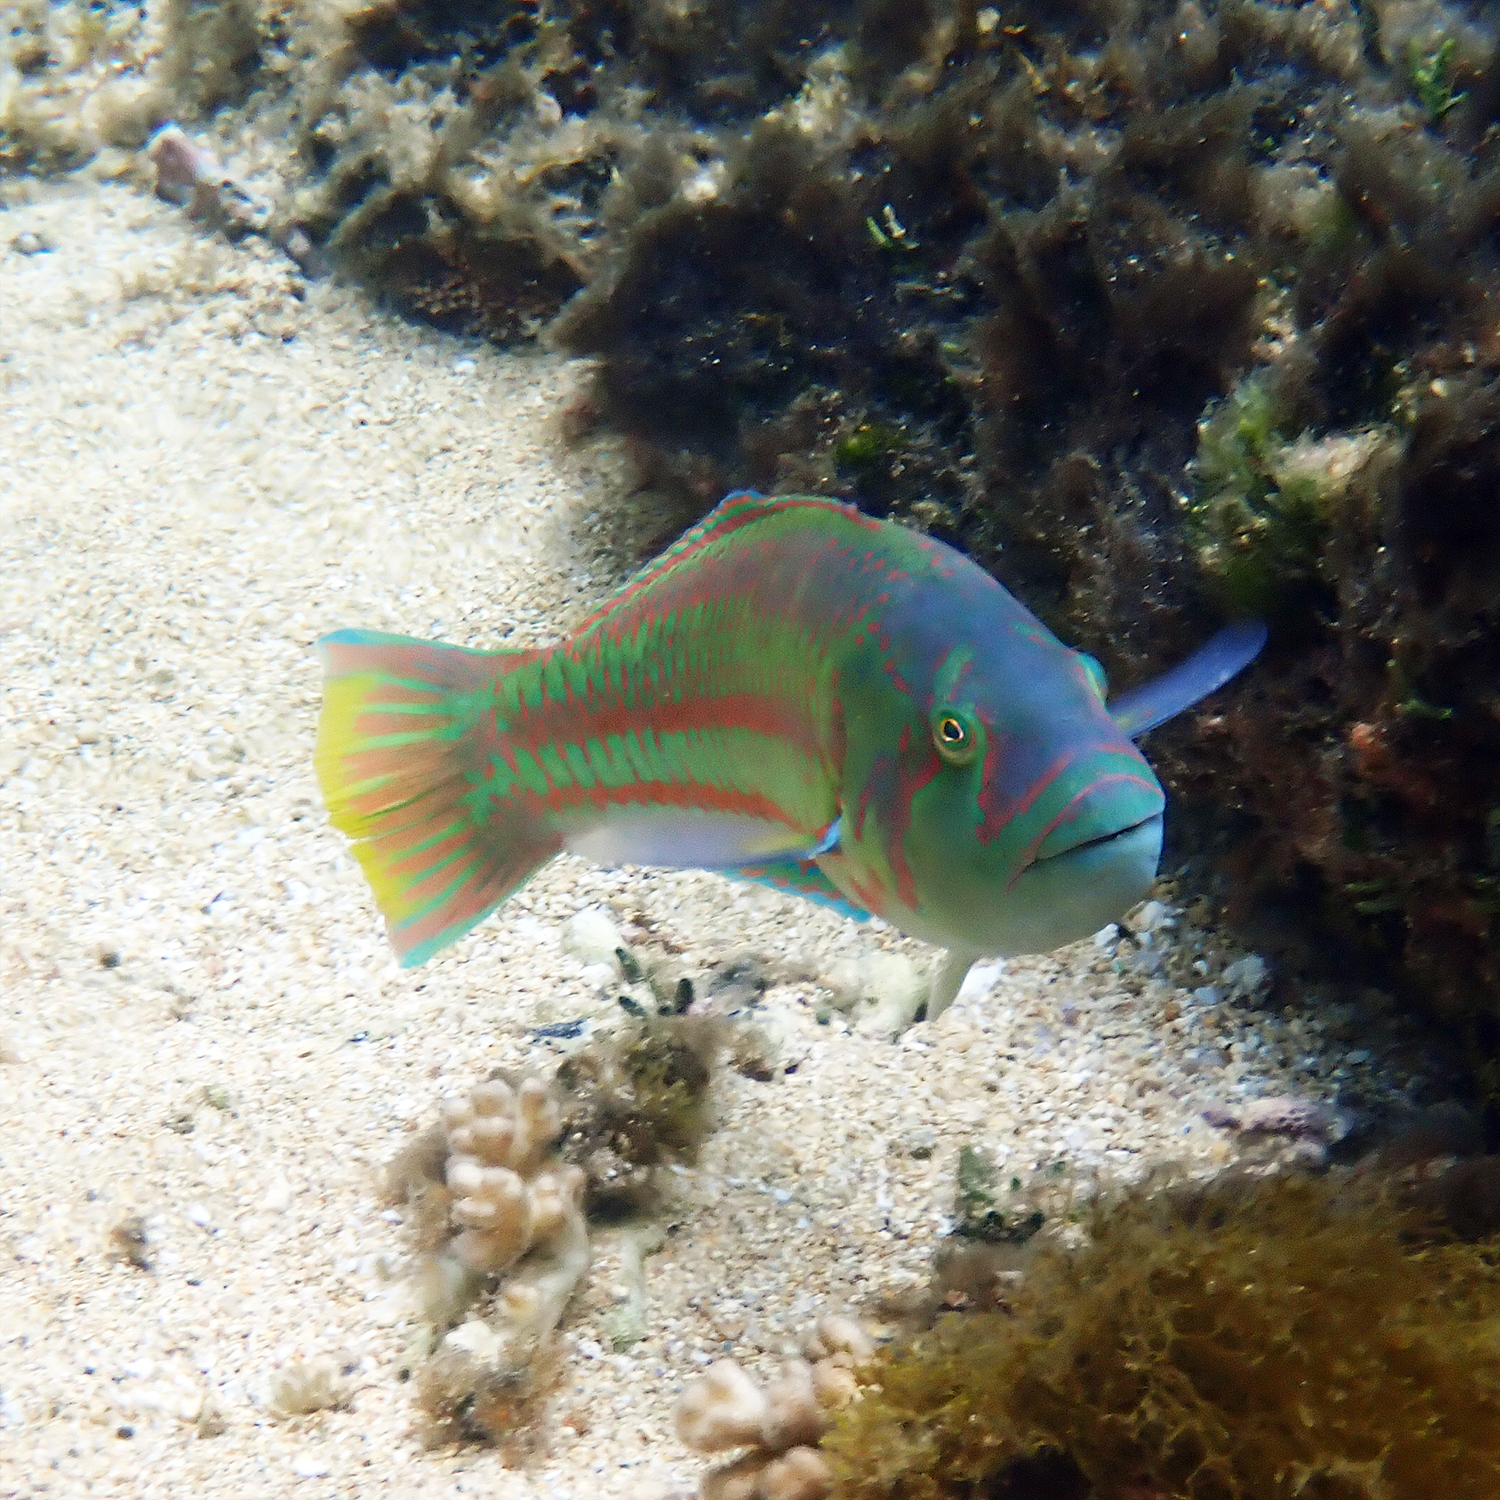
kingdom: Animalia
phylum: Chordata
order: Perciformes
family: Labridae
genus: Thalassoma
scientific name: Thalassoma purpureum
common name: Parrotfish
